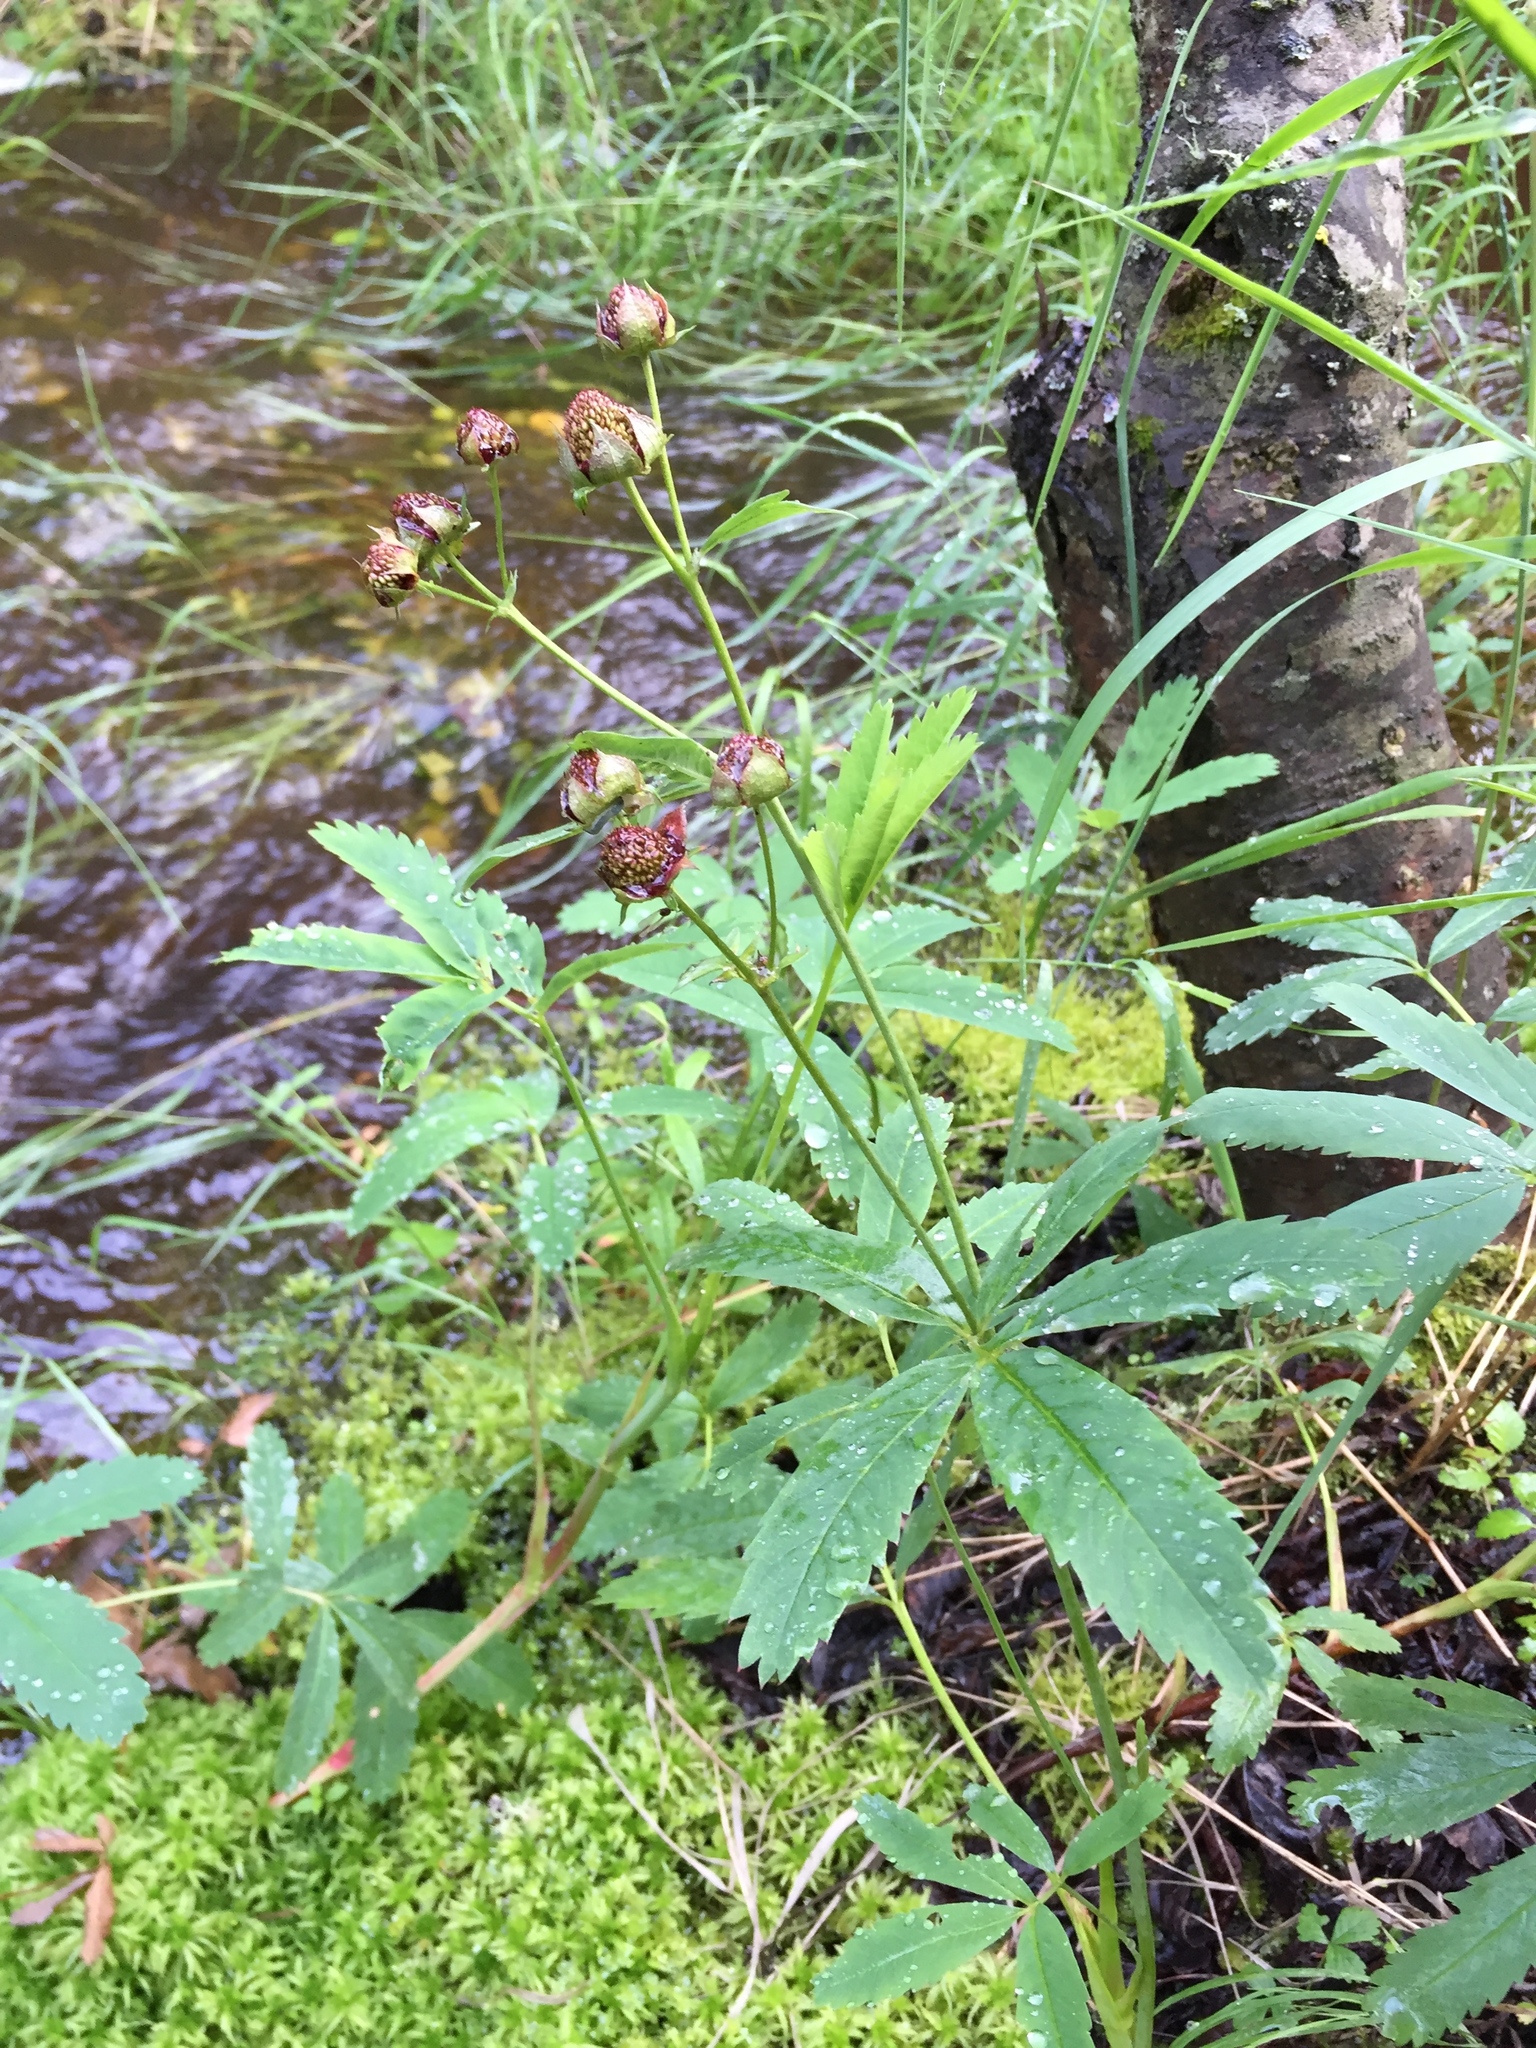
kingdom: Plantae
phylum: Tracheophyta
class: Magnoliopsida
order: Rosales
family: Rosaceae
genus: Comarum
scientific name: Comarum palustre
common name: Marsh cinquefoil
